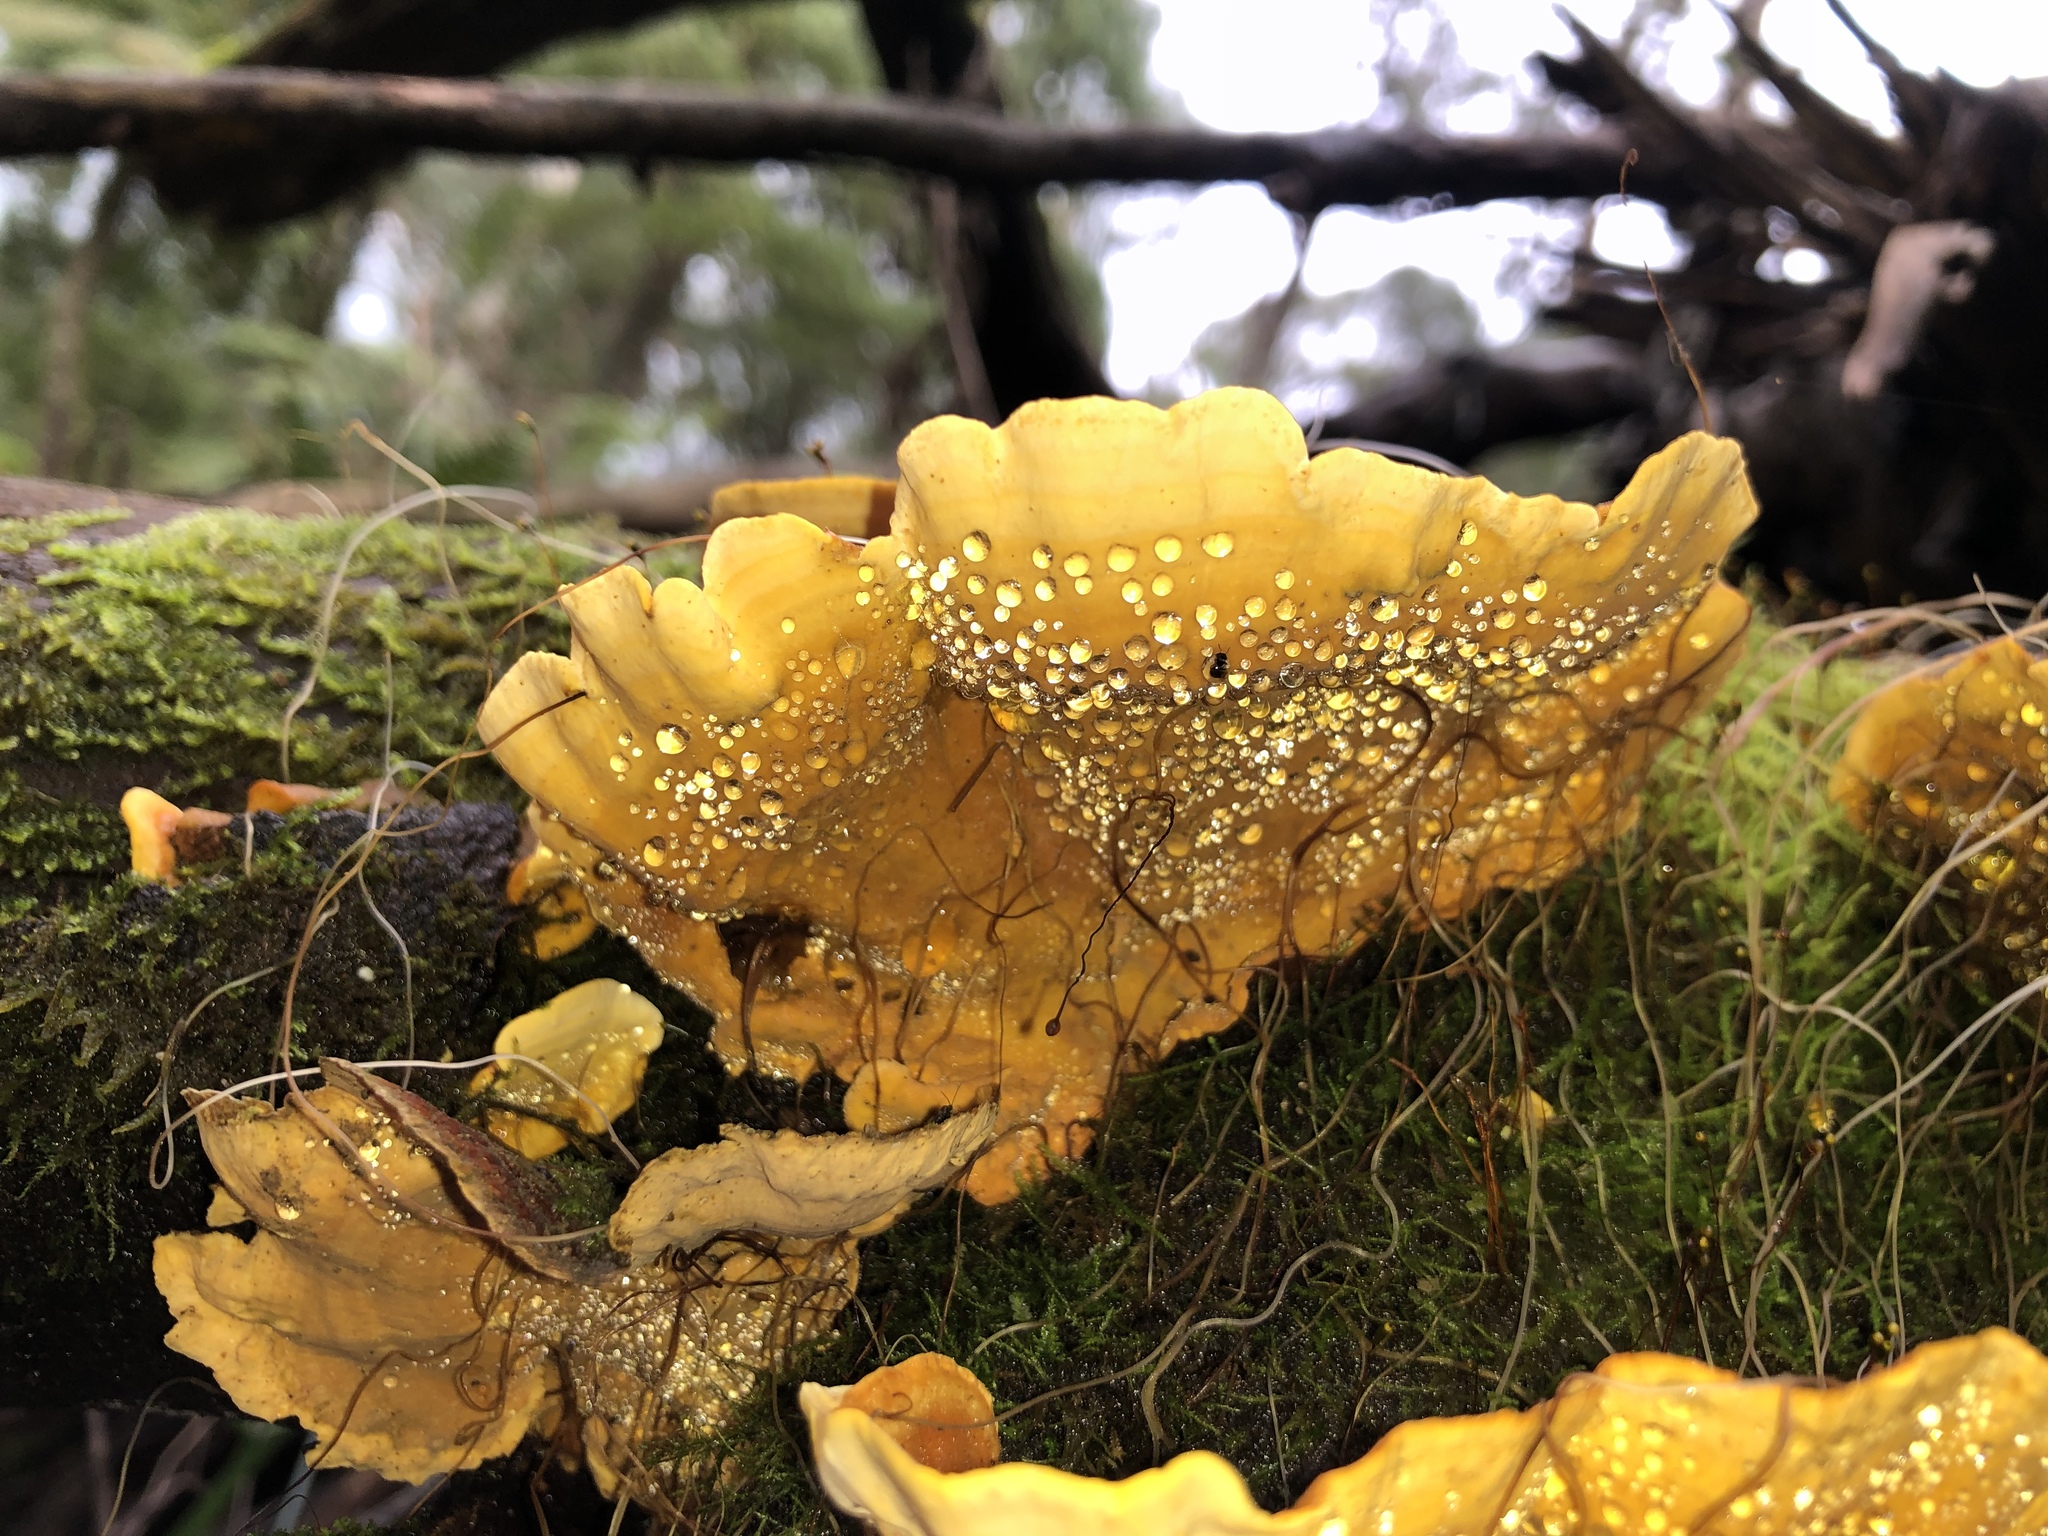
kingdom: Fungi
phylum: Basidiomycota
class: Agaricomycetes
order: Russulales
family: Stereaceae
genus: Stereum
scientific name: Stereum versicolor
